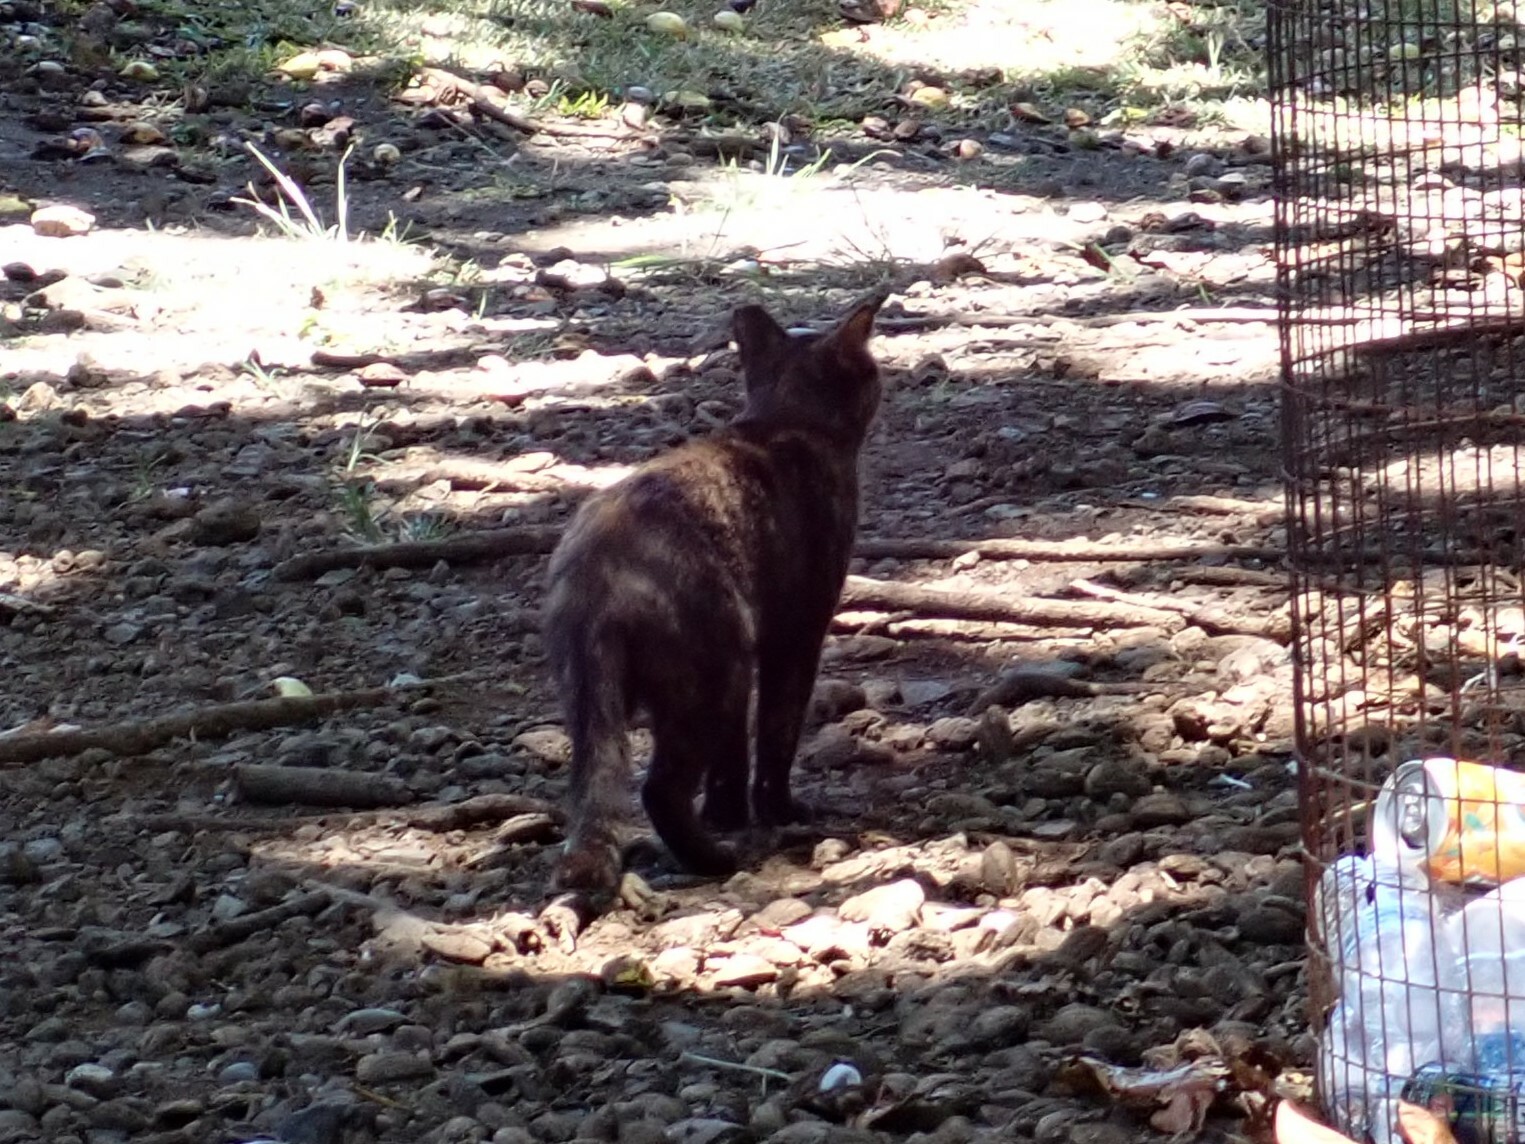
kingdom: Animalia
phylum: Chordata
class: Mammalia
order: Carnivora
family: Felidae
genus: Felis
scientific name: Felis catus
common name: Domestic cat
